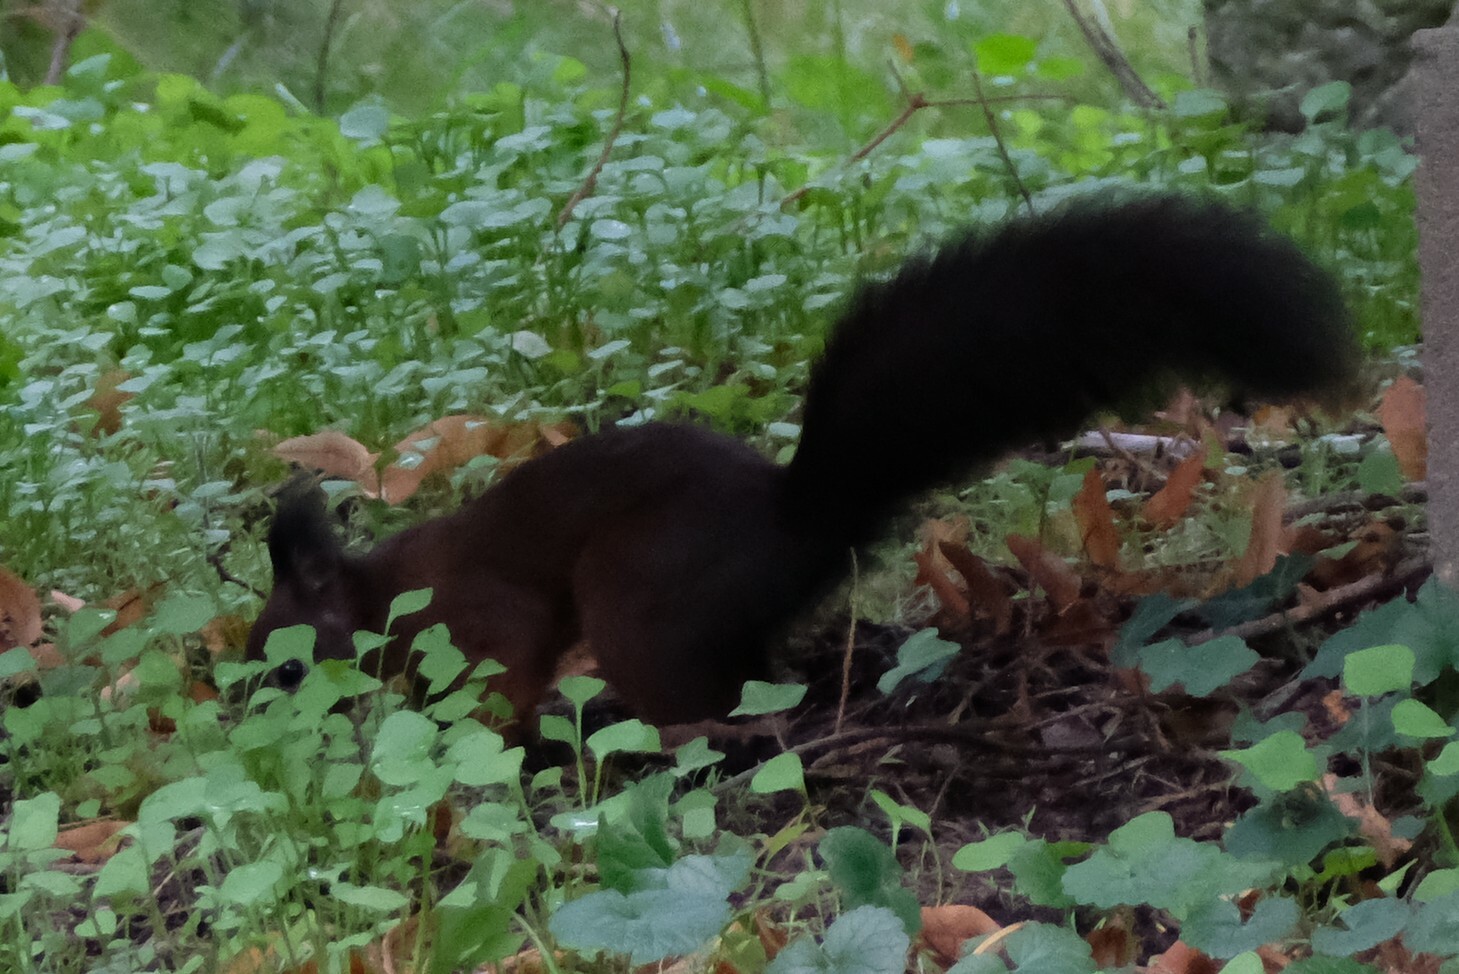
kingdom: Animalia
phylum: Chordata
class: Mammalia
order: Rodentia
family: Sciuridae
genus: Sciurus
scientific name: Sciurus vulgaris
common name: Eurasian red squirrel
